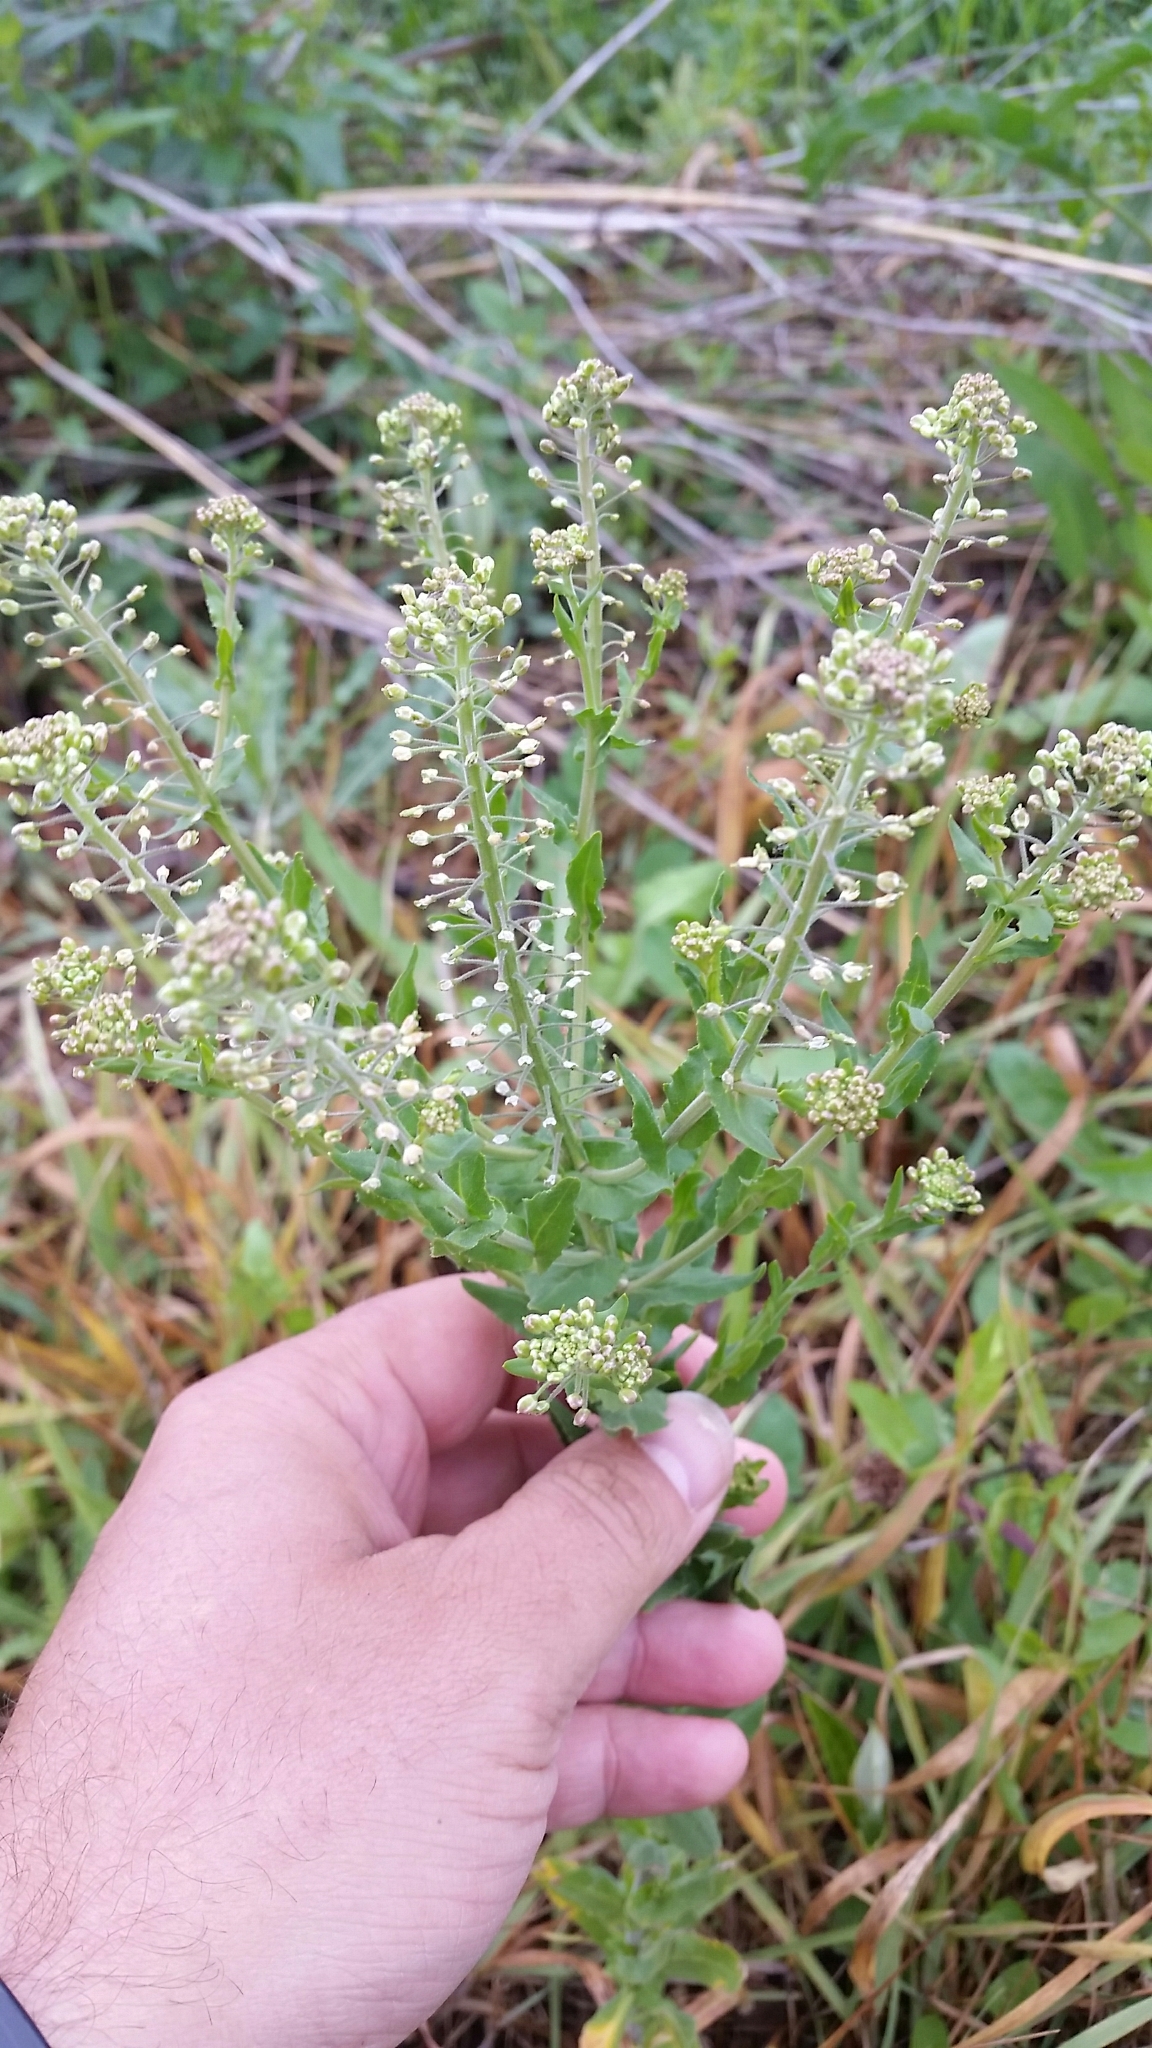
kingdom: Plantae
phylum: Tracheophyta
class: Magnoliopsida
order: Brassicales
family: Brassicaceae
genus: Lepidium
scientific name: Lepidium campestre
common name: Field pepperwort
